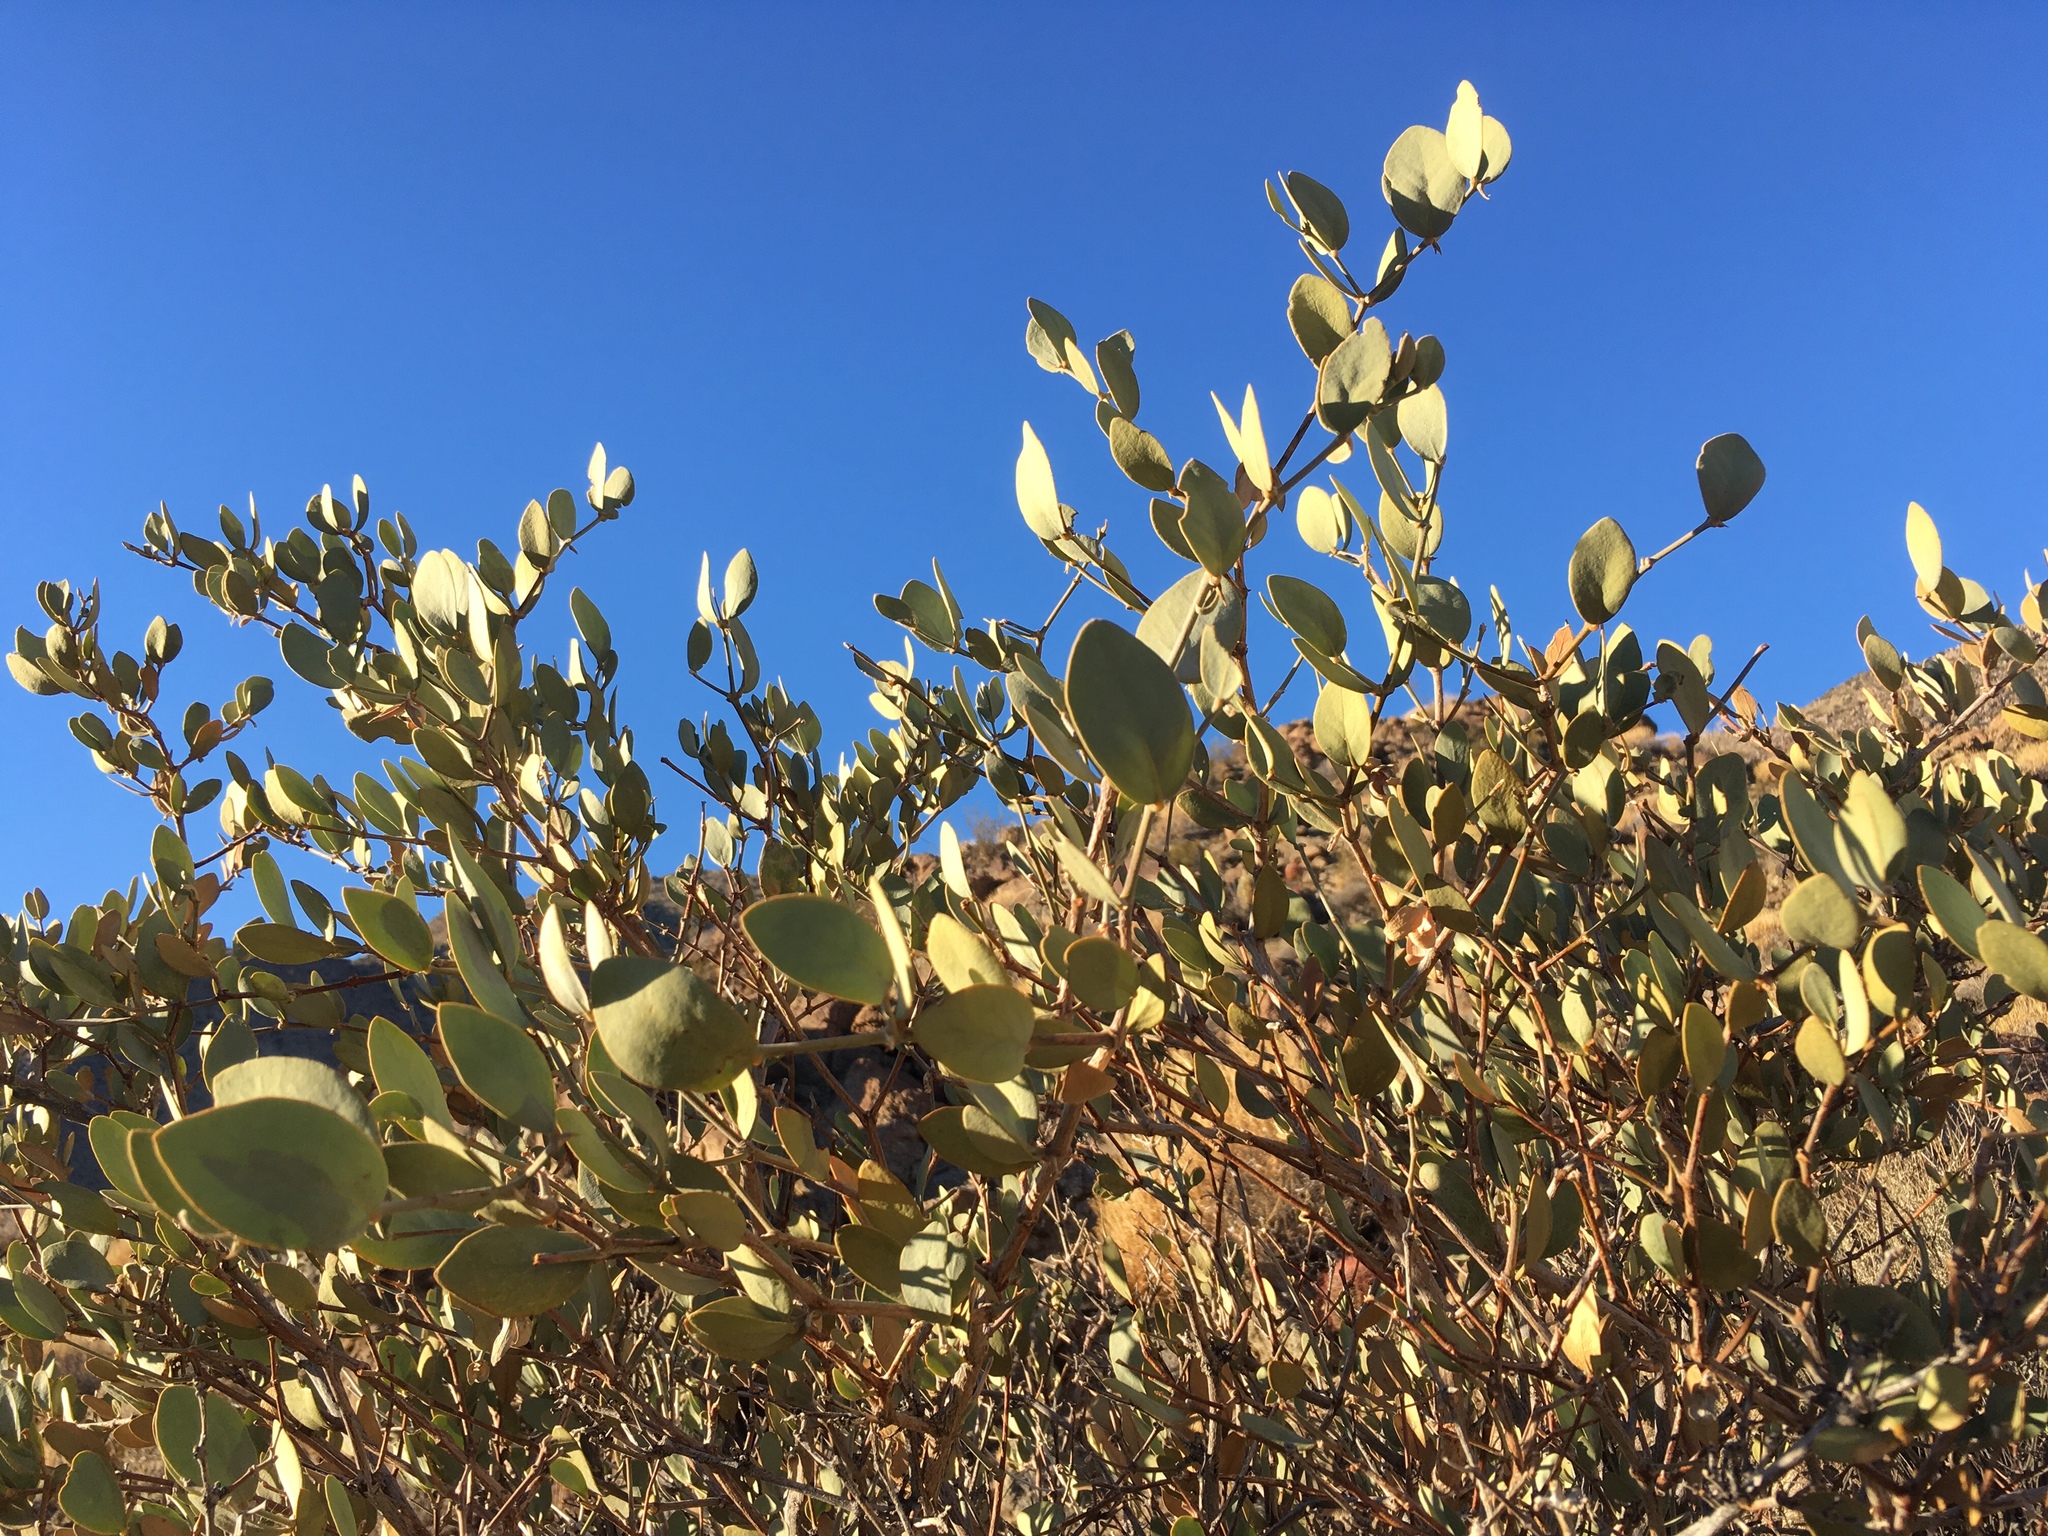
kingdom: Plantae
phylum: Tracheophyta
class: Magnoliopsida
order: Caryophyllales
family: Simmondsiaceae
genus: Simmondsia
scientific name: Simmondsia chinensis
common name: Jojoba
